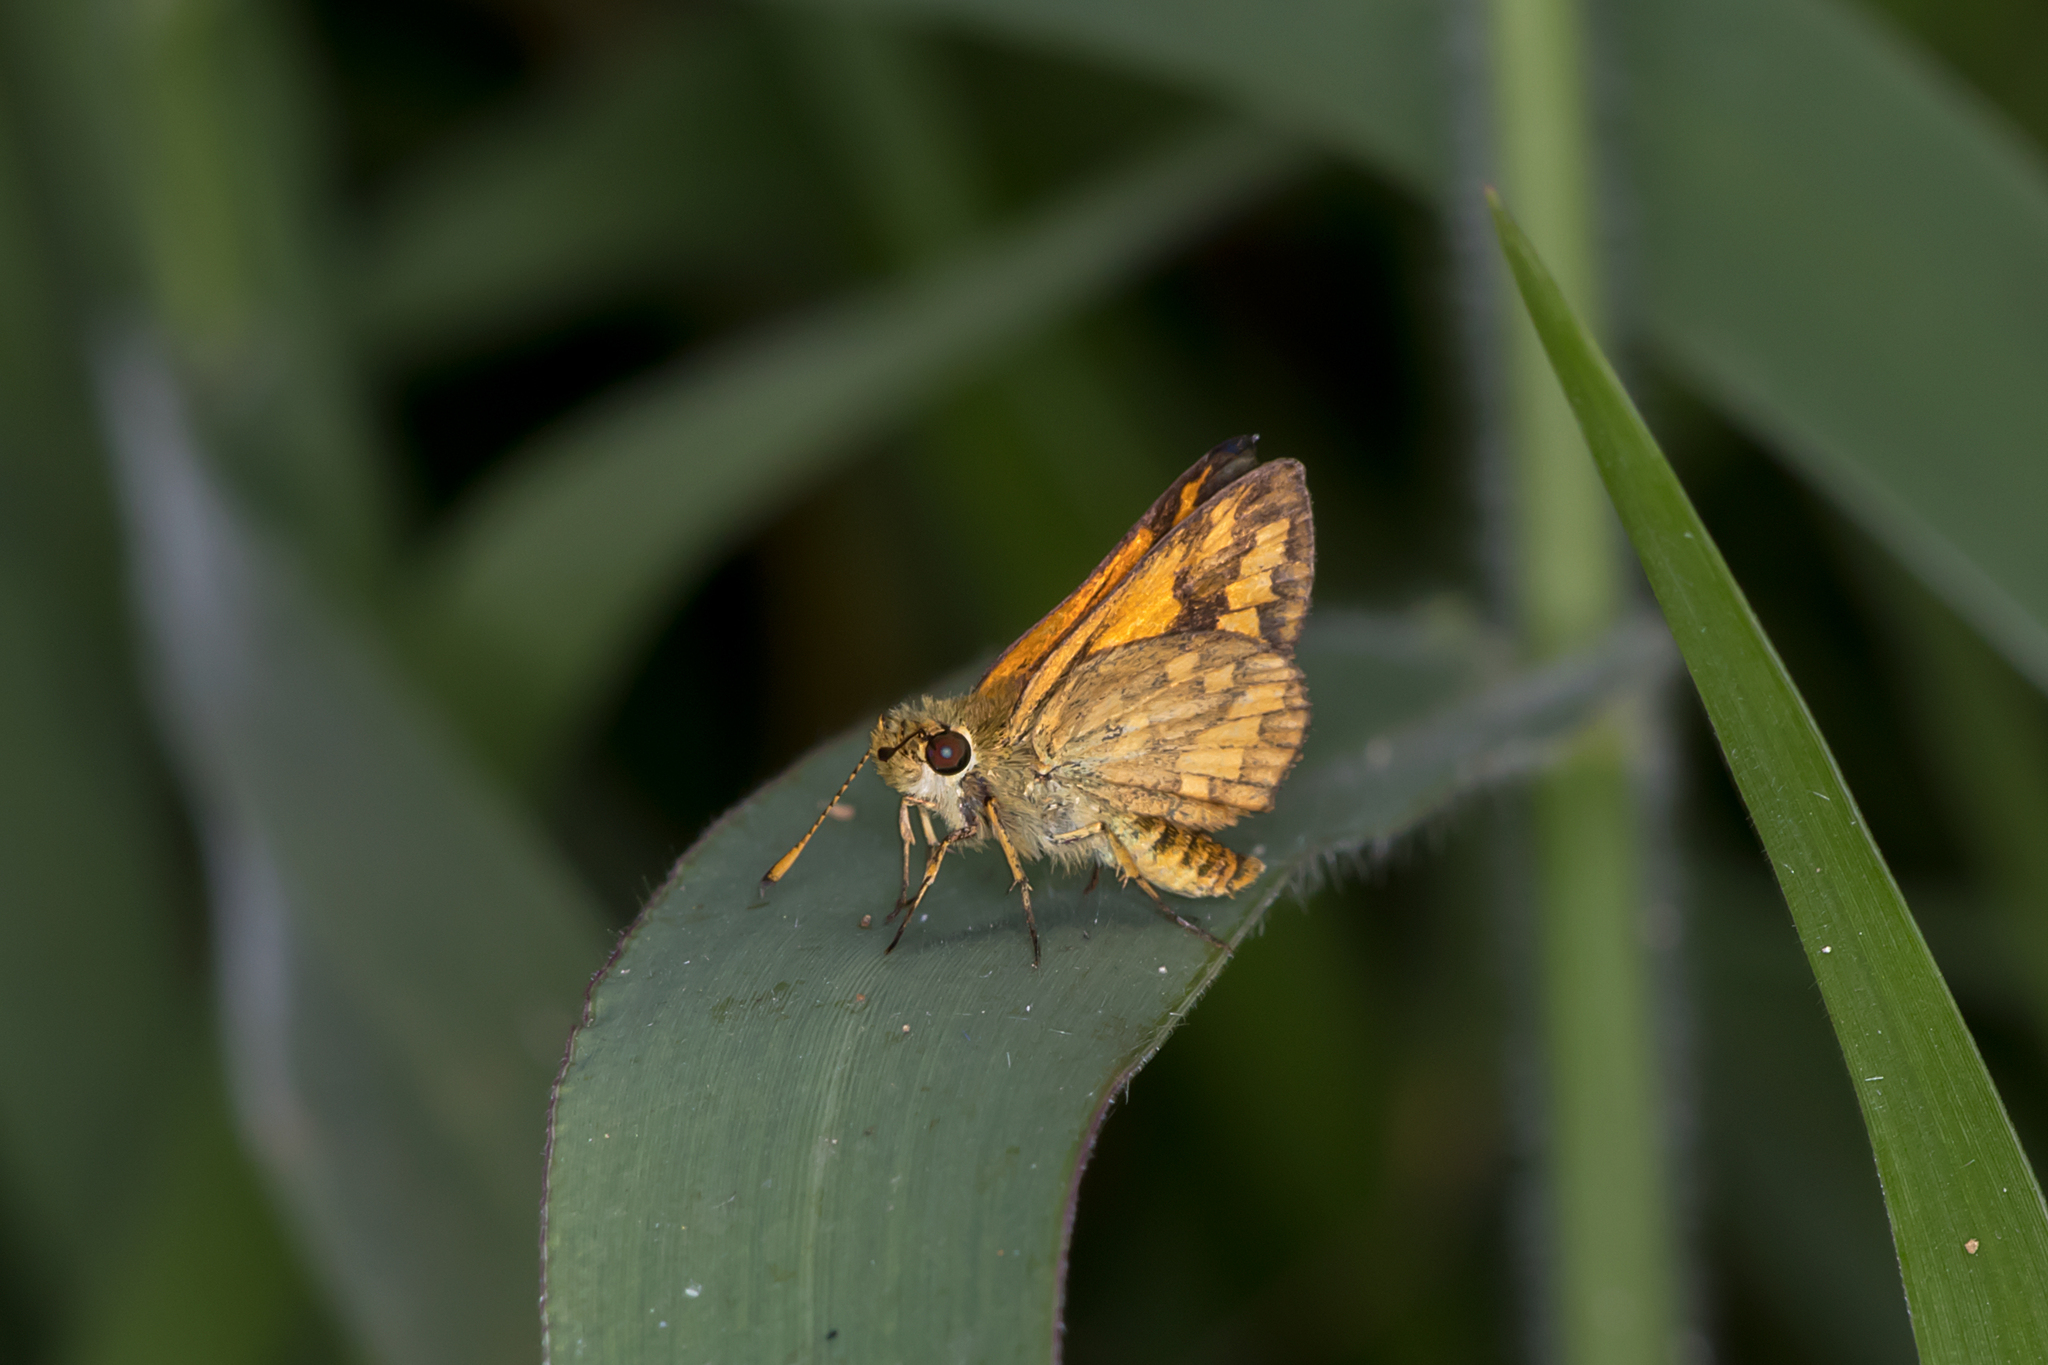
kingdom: Animalia
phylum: Arthropoda
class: Insecta
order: Lepidoptera
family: Hesperiidae
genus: Suniana
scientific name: Suniana sunias
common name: Wide-brand grass-dart
